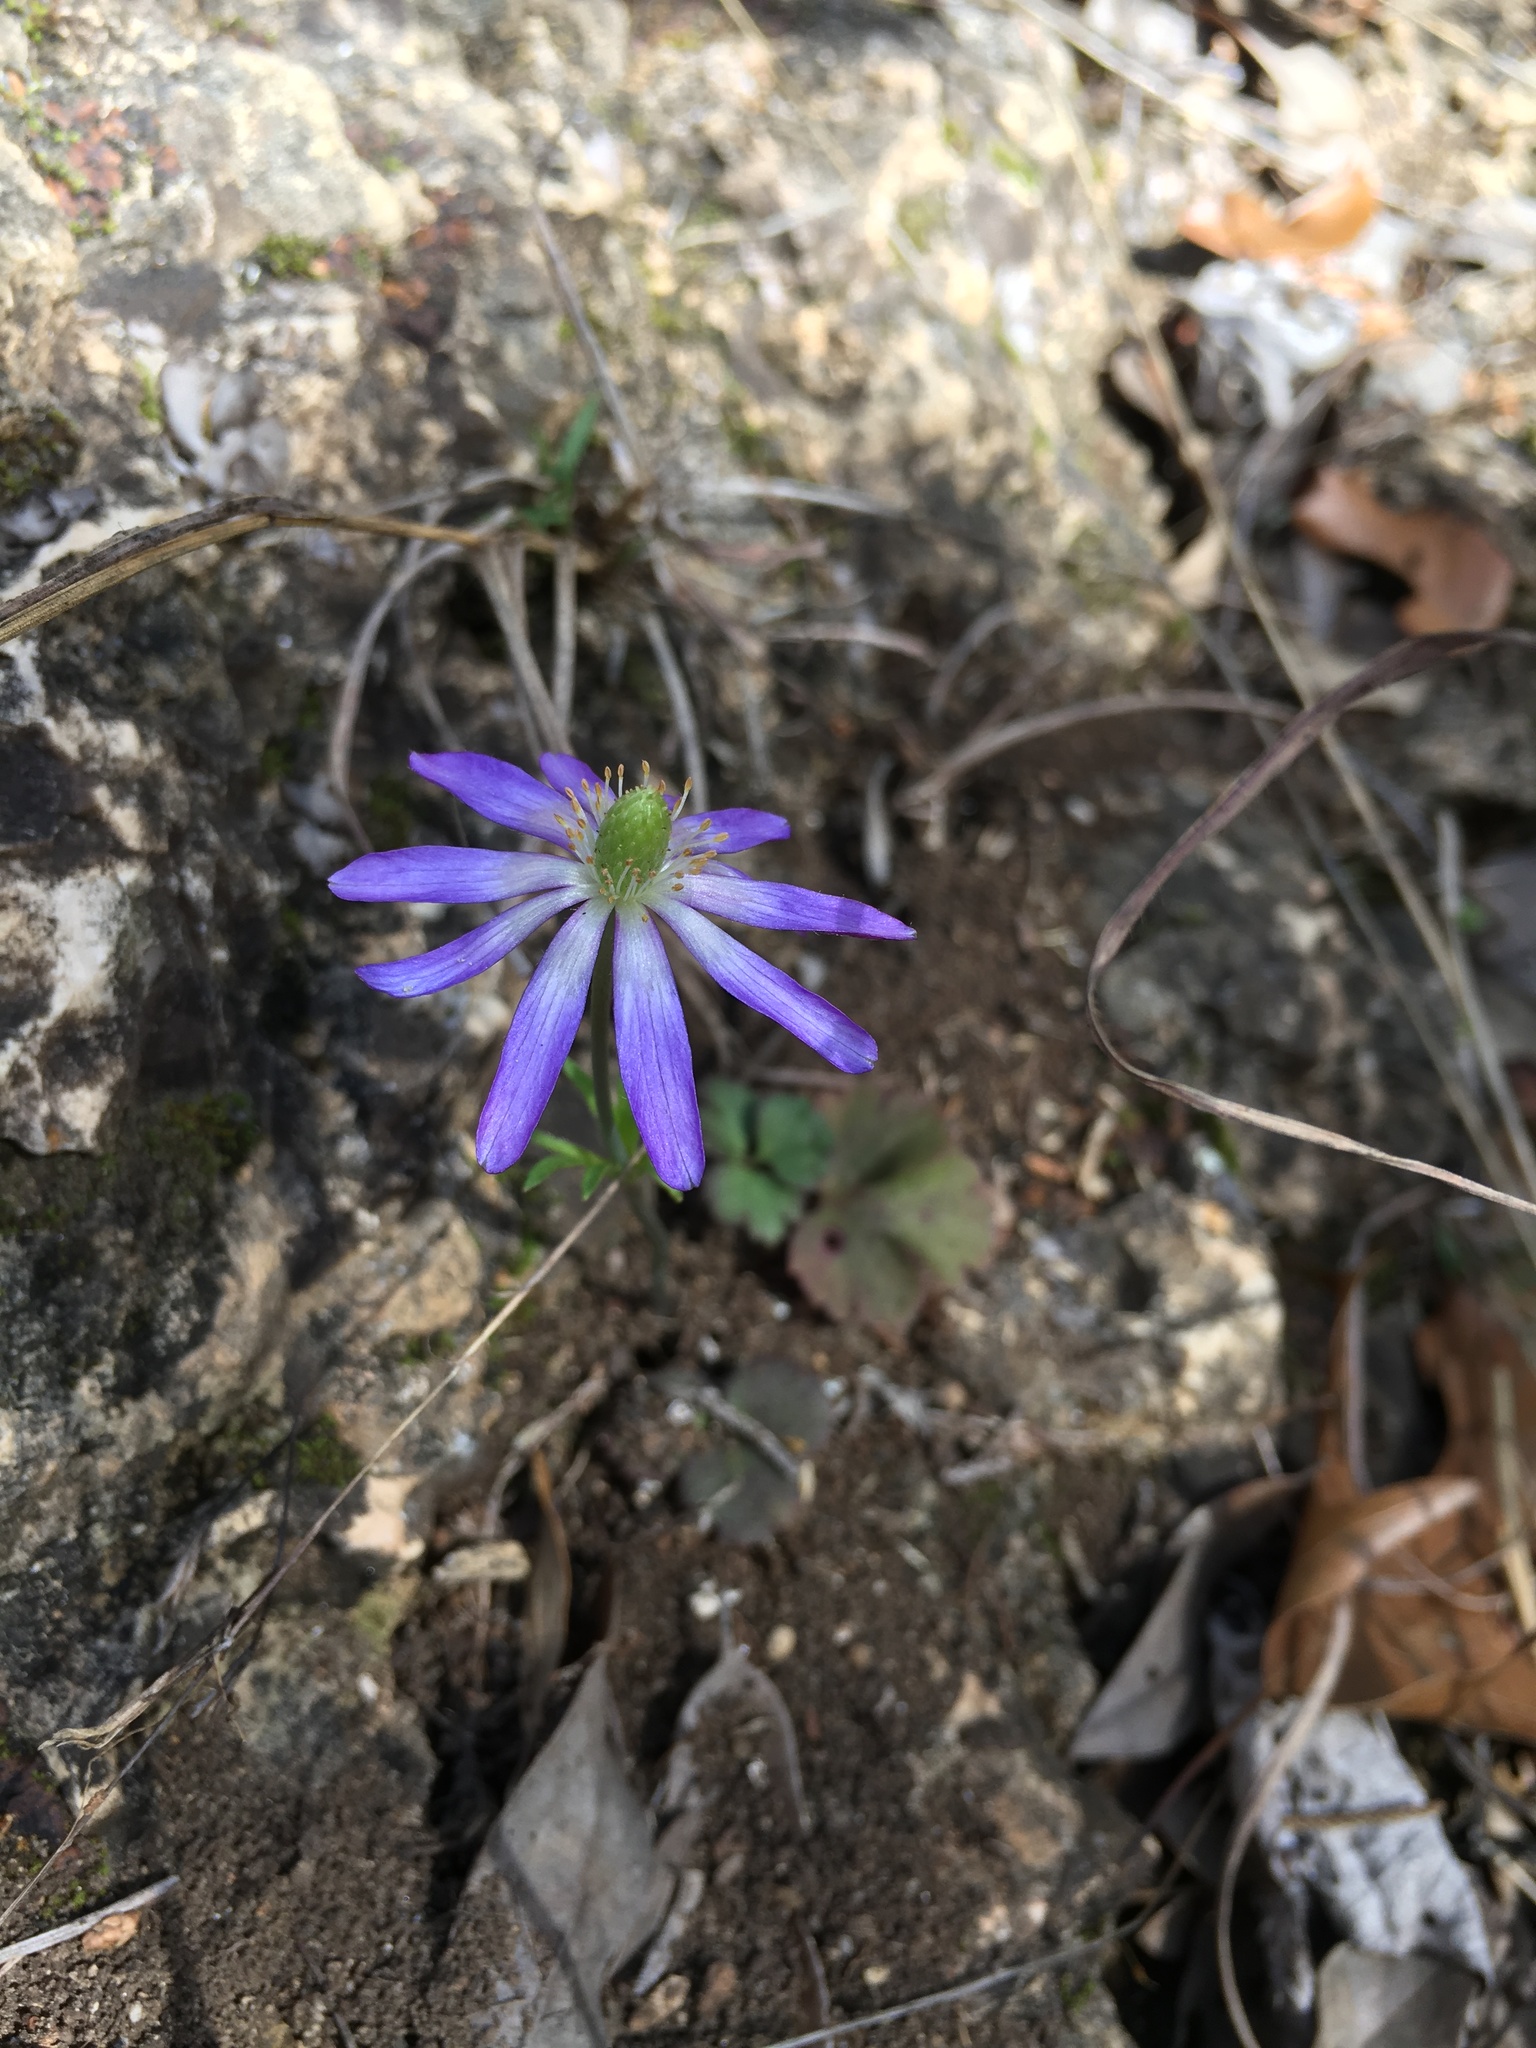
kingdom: Plantae
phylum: Tracheophyta
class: Magnoliopsida
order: Ranunculales
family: Ranunculaceae
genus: Anemone
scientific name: Anemone berlandieri
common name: Ten-petal anemone
